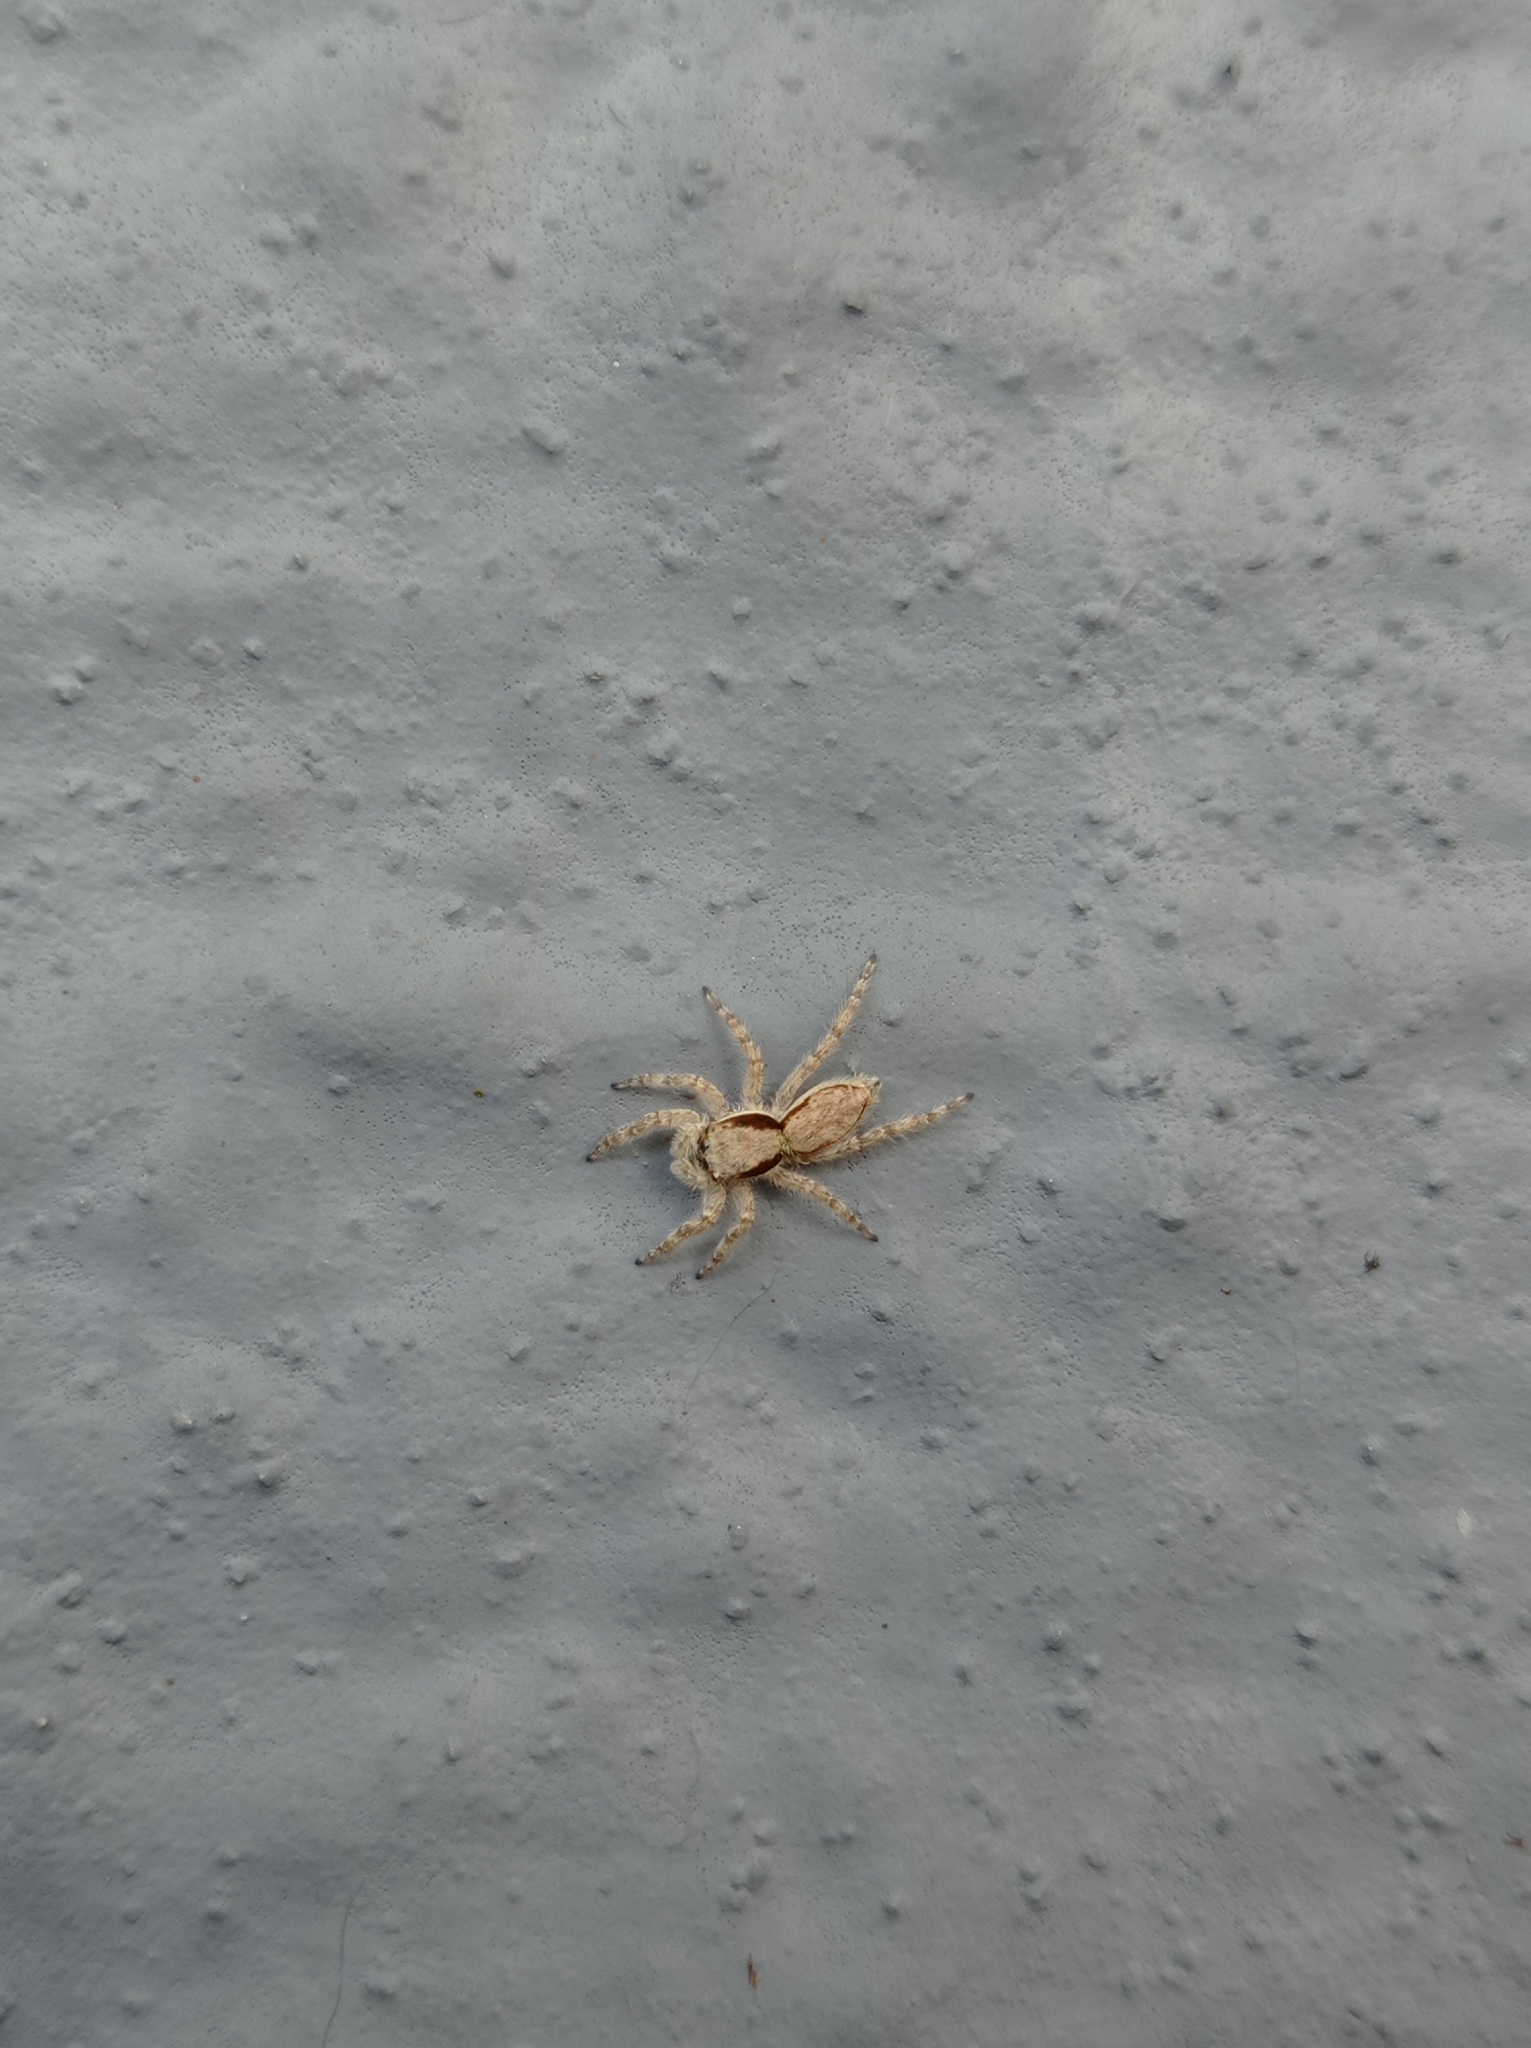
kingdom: Animalia
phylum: Arthropoda
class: Arachnida
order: Araneae
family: Salticidae
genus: Menemerus
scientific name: Menemerus bivittatus
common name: Gray wall jumper
